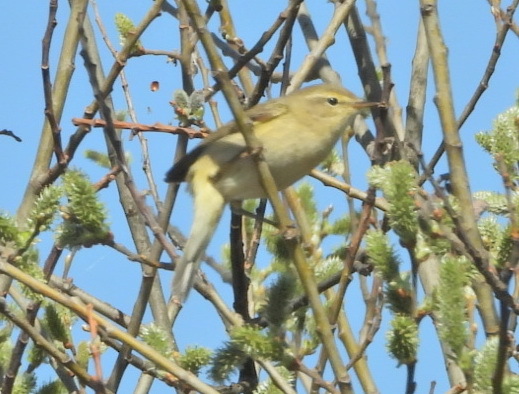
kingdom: Animalia
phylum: Chordata
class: Aves
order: Passeriformes
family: Phylloscopidae
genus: Phylloscopus
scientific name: Phylloscopus trochilus
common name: Willow warbler
